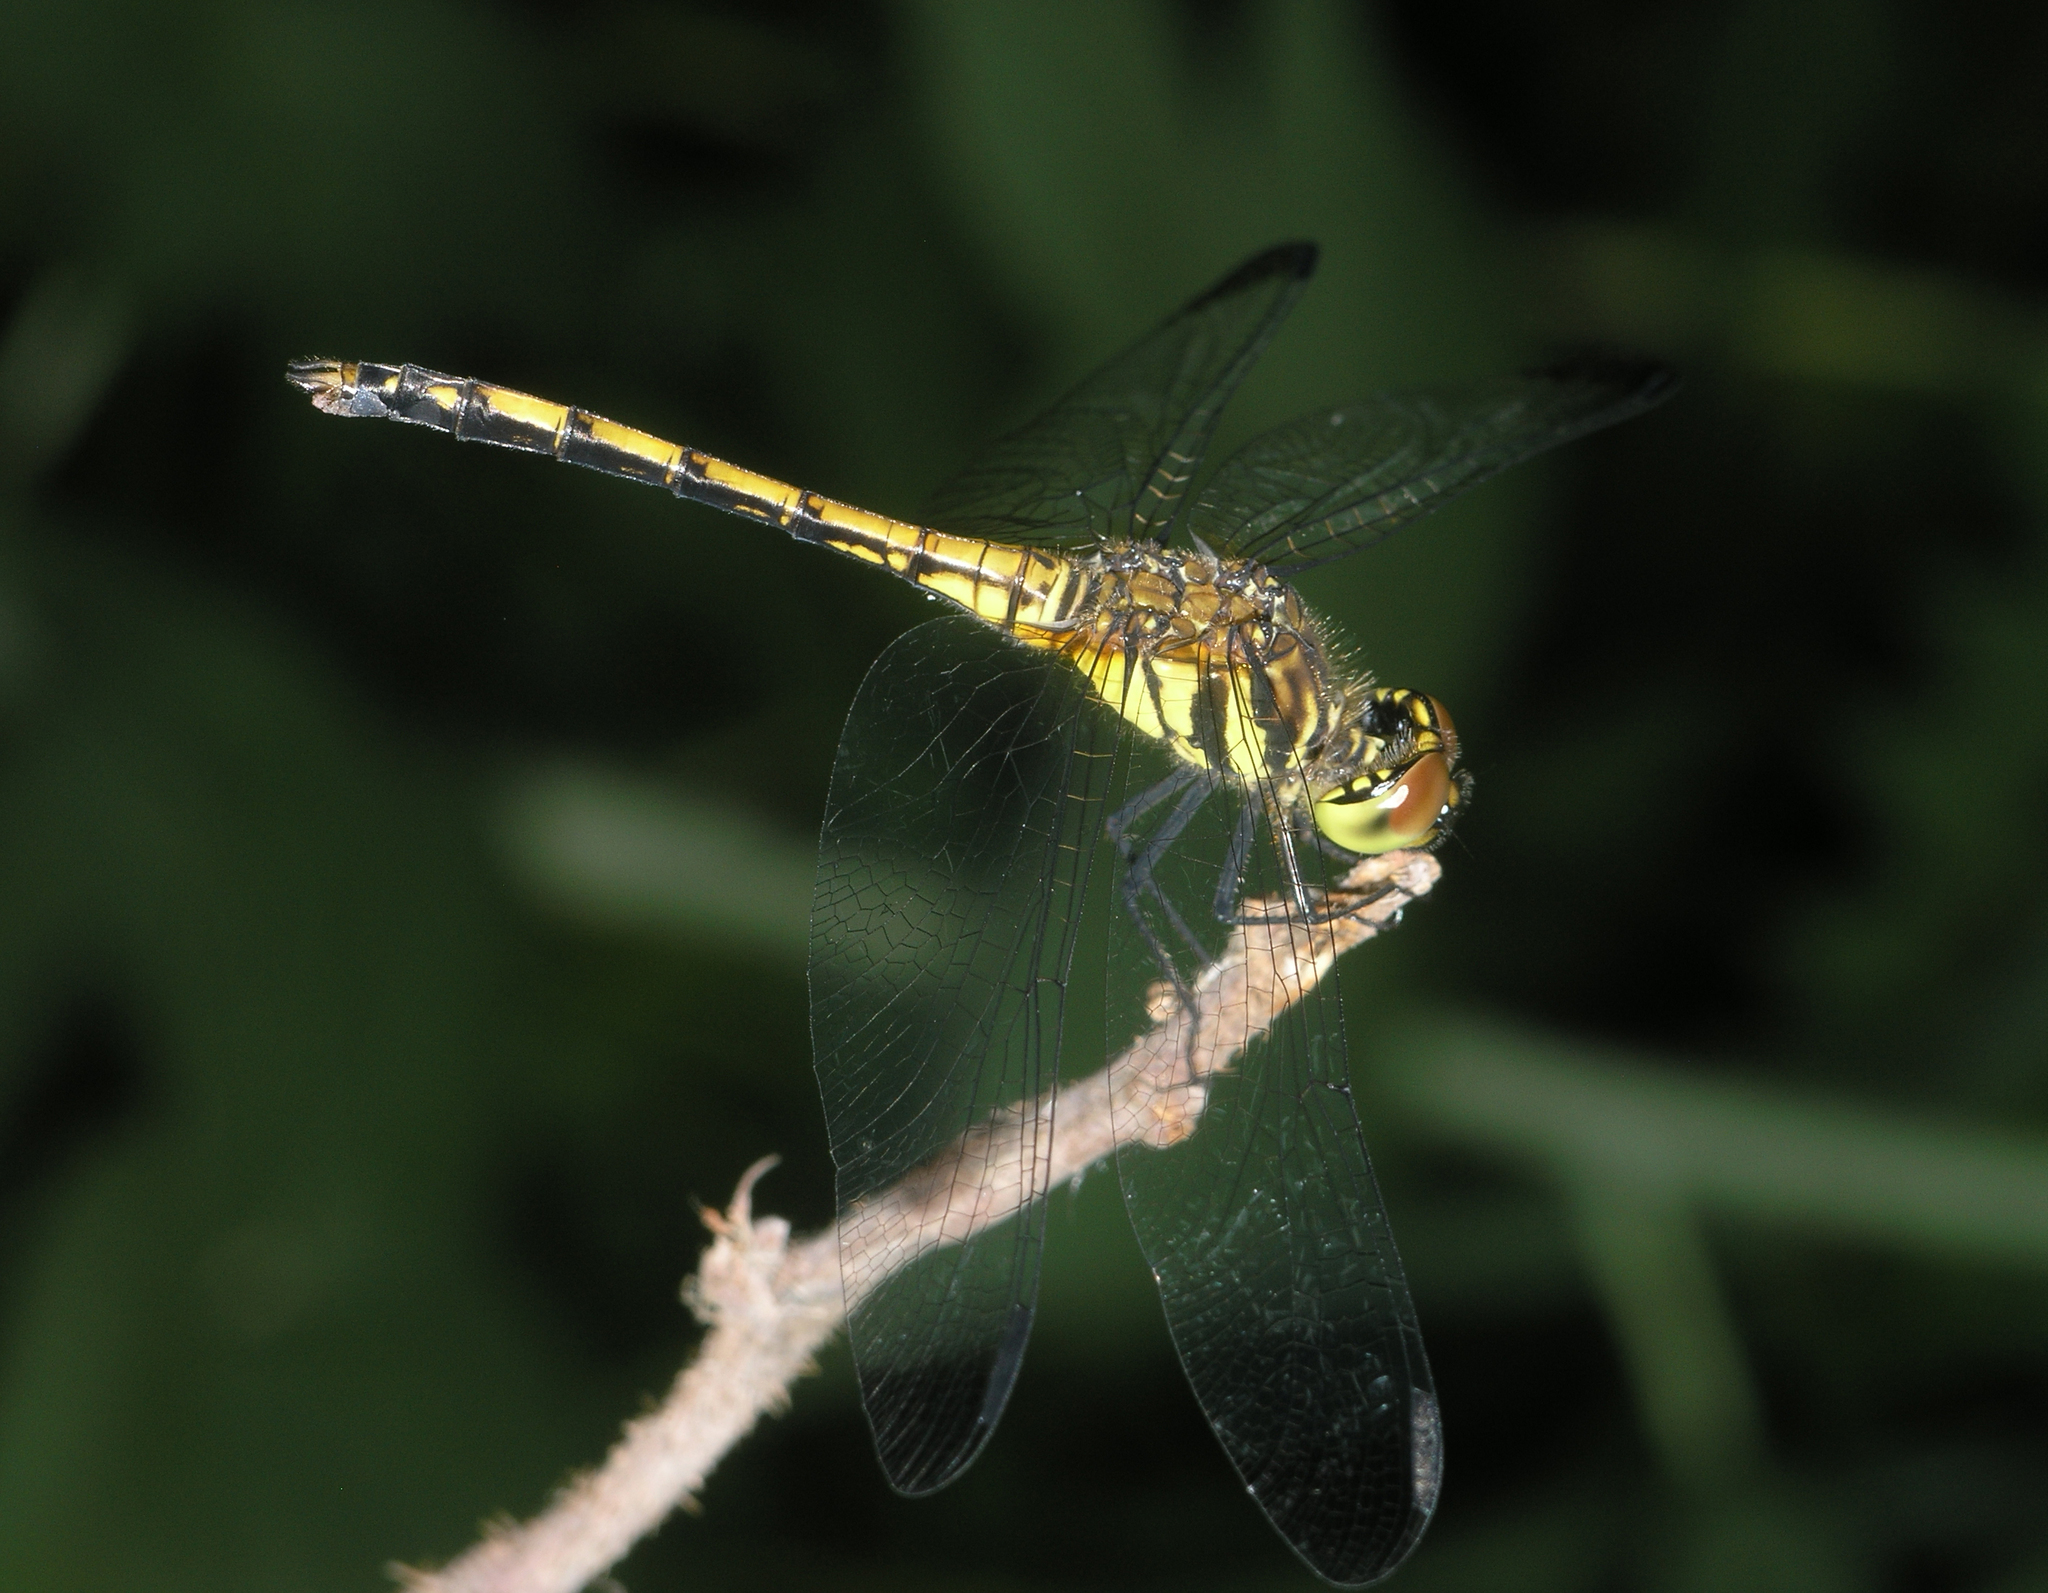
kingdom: Animalia
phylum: Arthropoda
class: Insecta
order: Odonata
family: Libellulidae
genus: Sympetrum
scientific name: Sympetrum infuscatum
